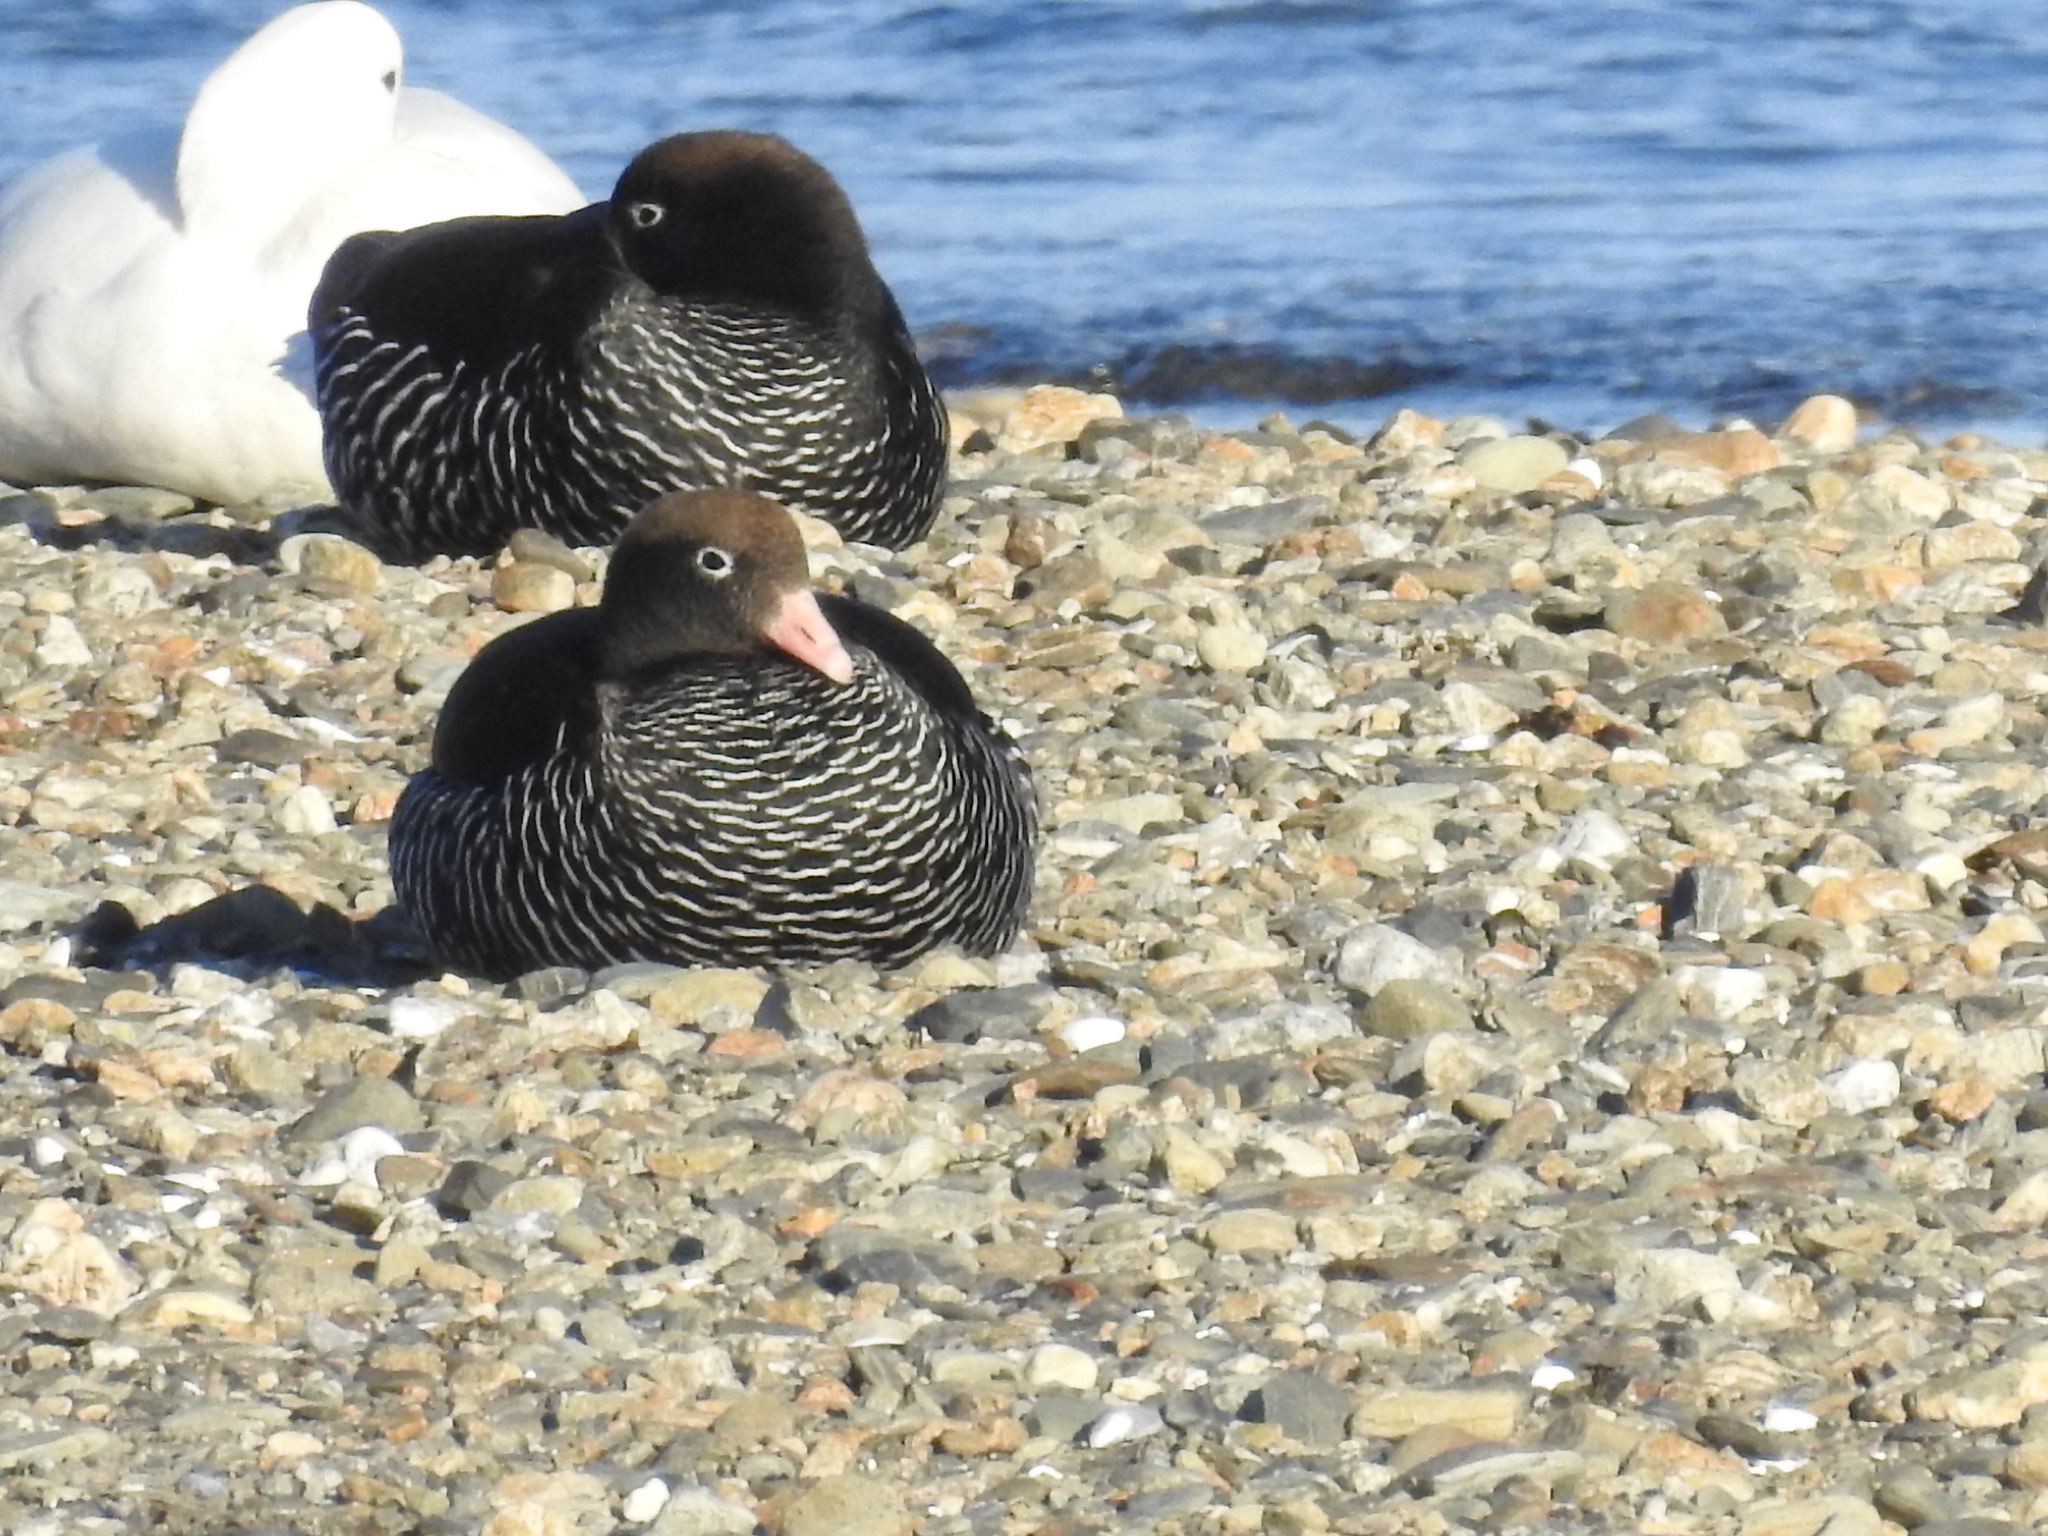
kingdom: Animalia
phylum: Chordata
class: Aves
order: Anseriformes
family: Anatidae
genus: Chloephaga
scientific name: Chloephaga hybrida
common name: Kelp goose
